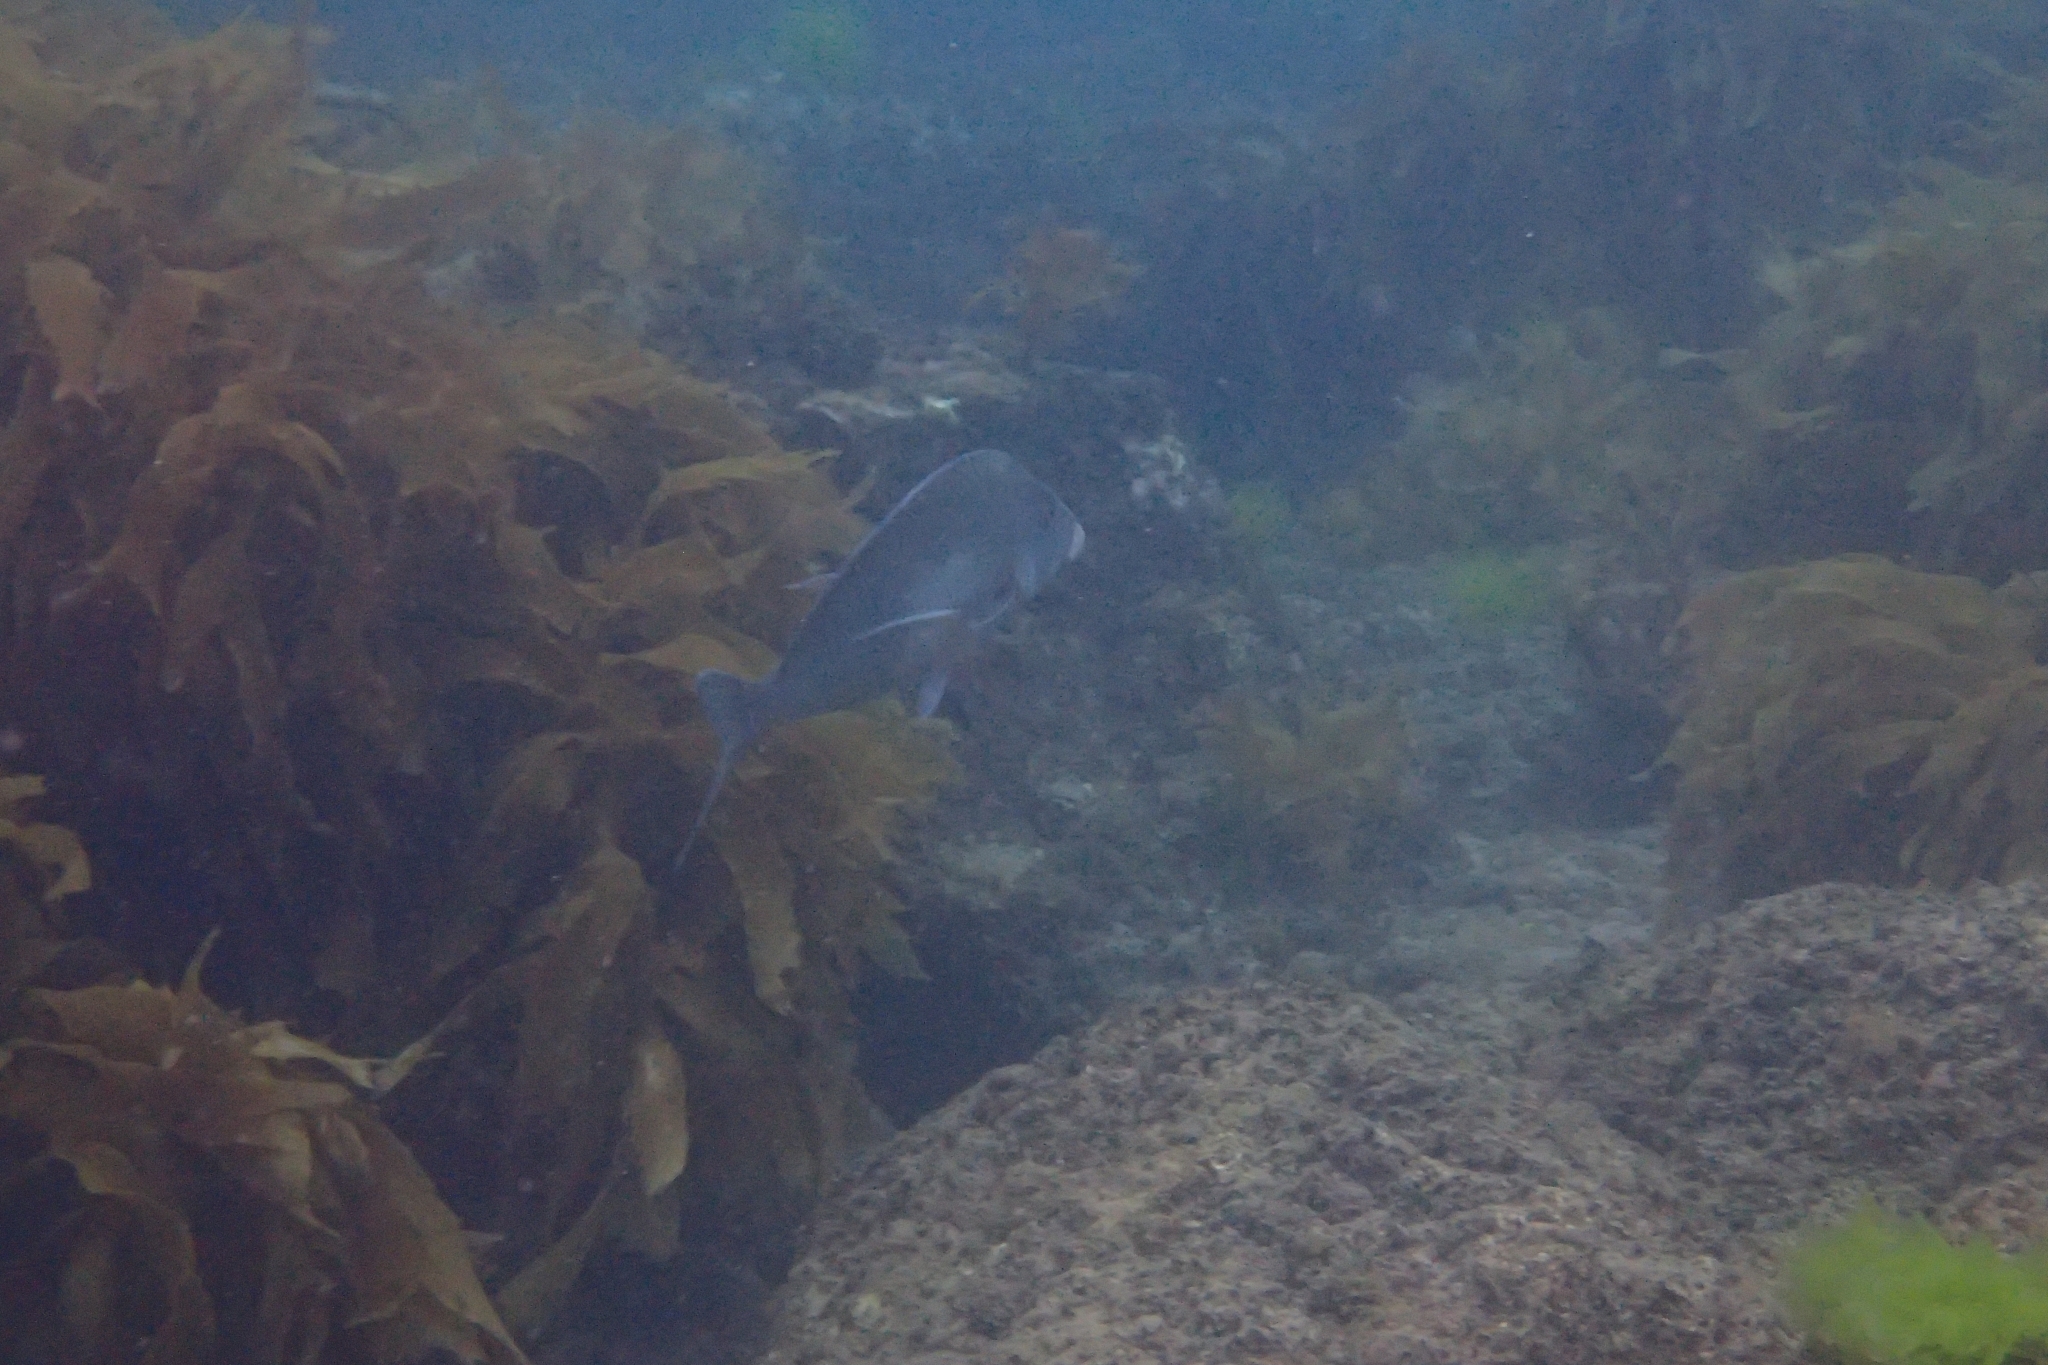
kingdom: Animalia
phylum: Chordata
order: Perciformes
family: Cheilodactylidae
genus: Nemadactylus
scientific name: Nemadactylus douglasii
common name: Porae
